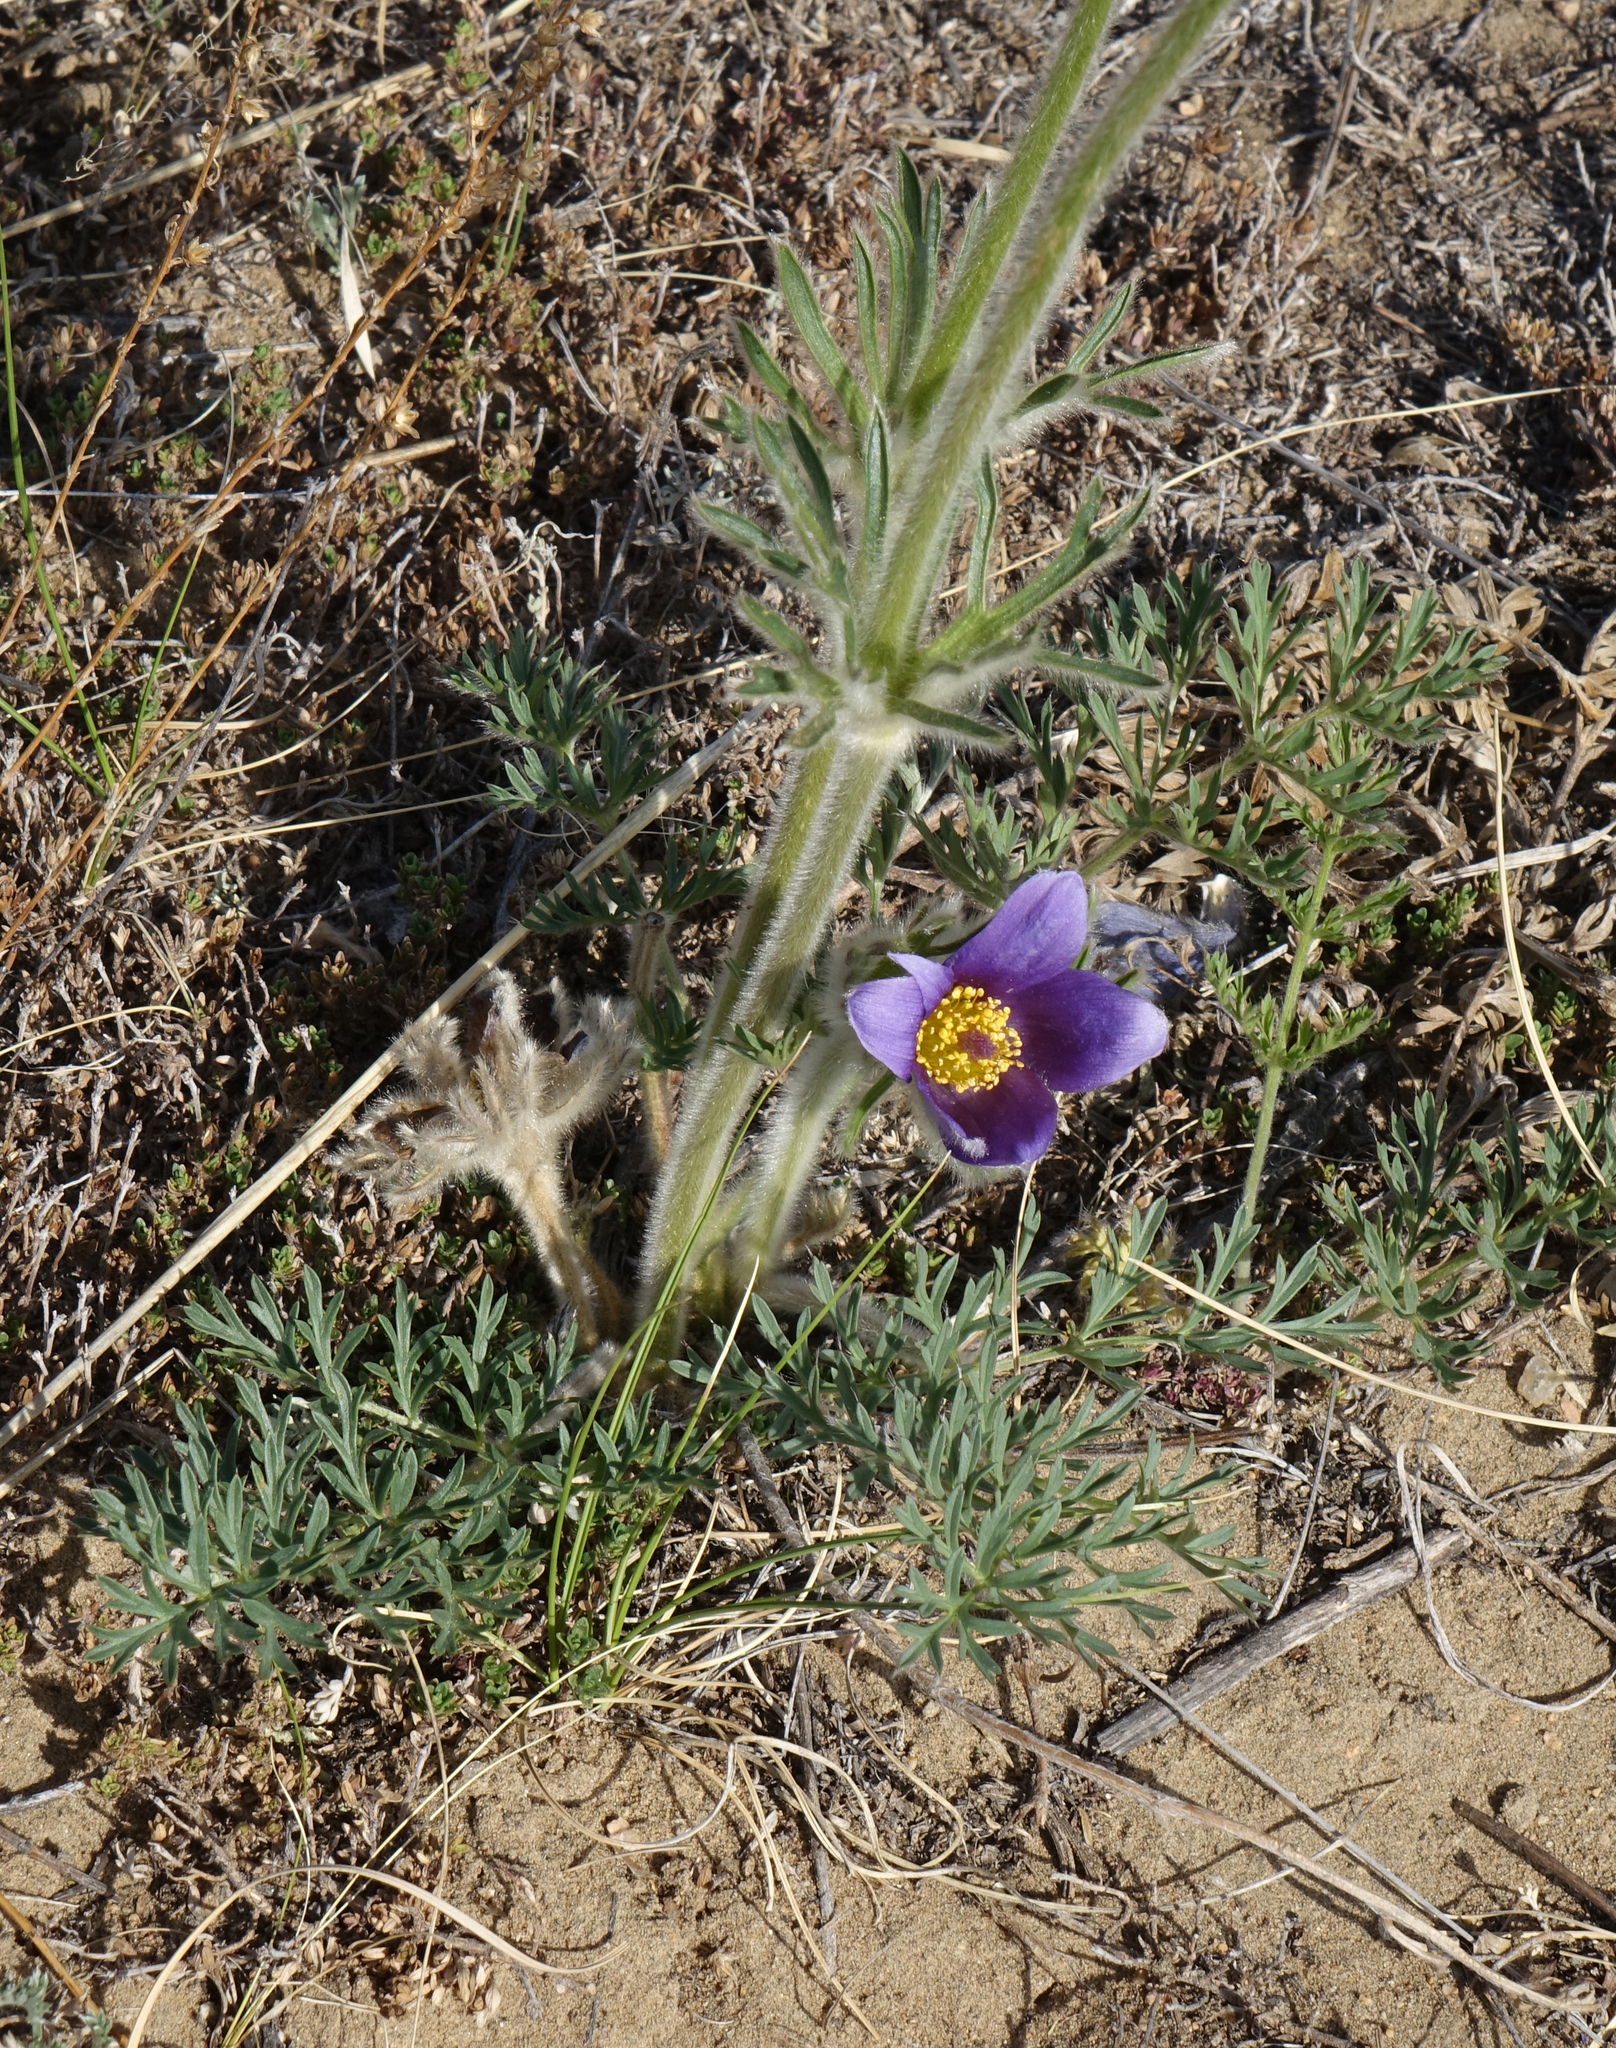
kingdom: Plantae
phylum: Tracheophyta
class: Magnoliopsida
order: Ranunculales
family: Ranunculaceae
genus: Pulsatilla
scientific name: Pulsatilla turczaninovii
